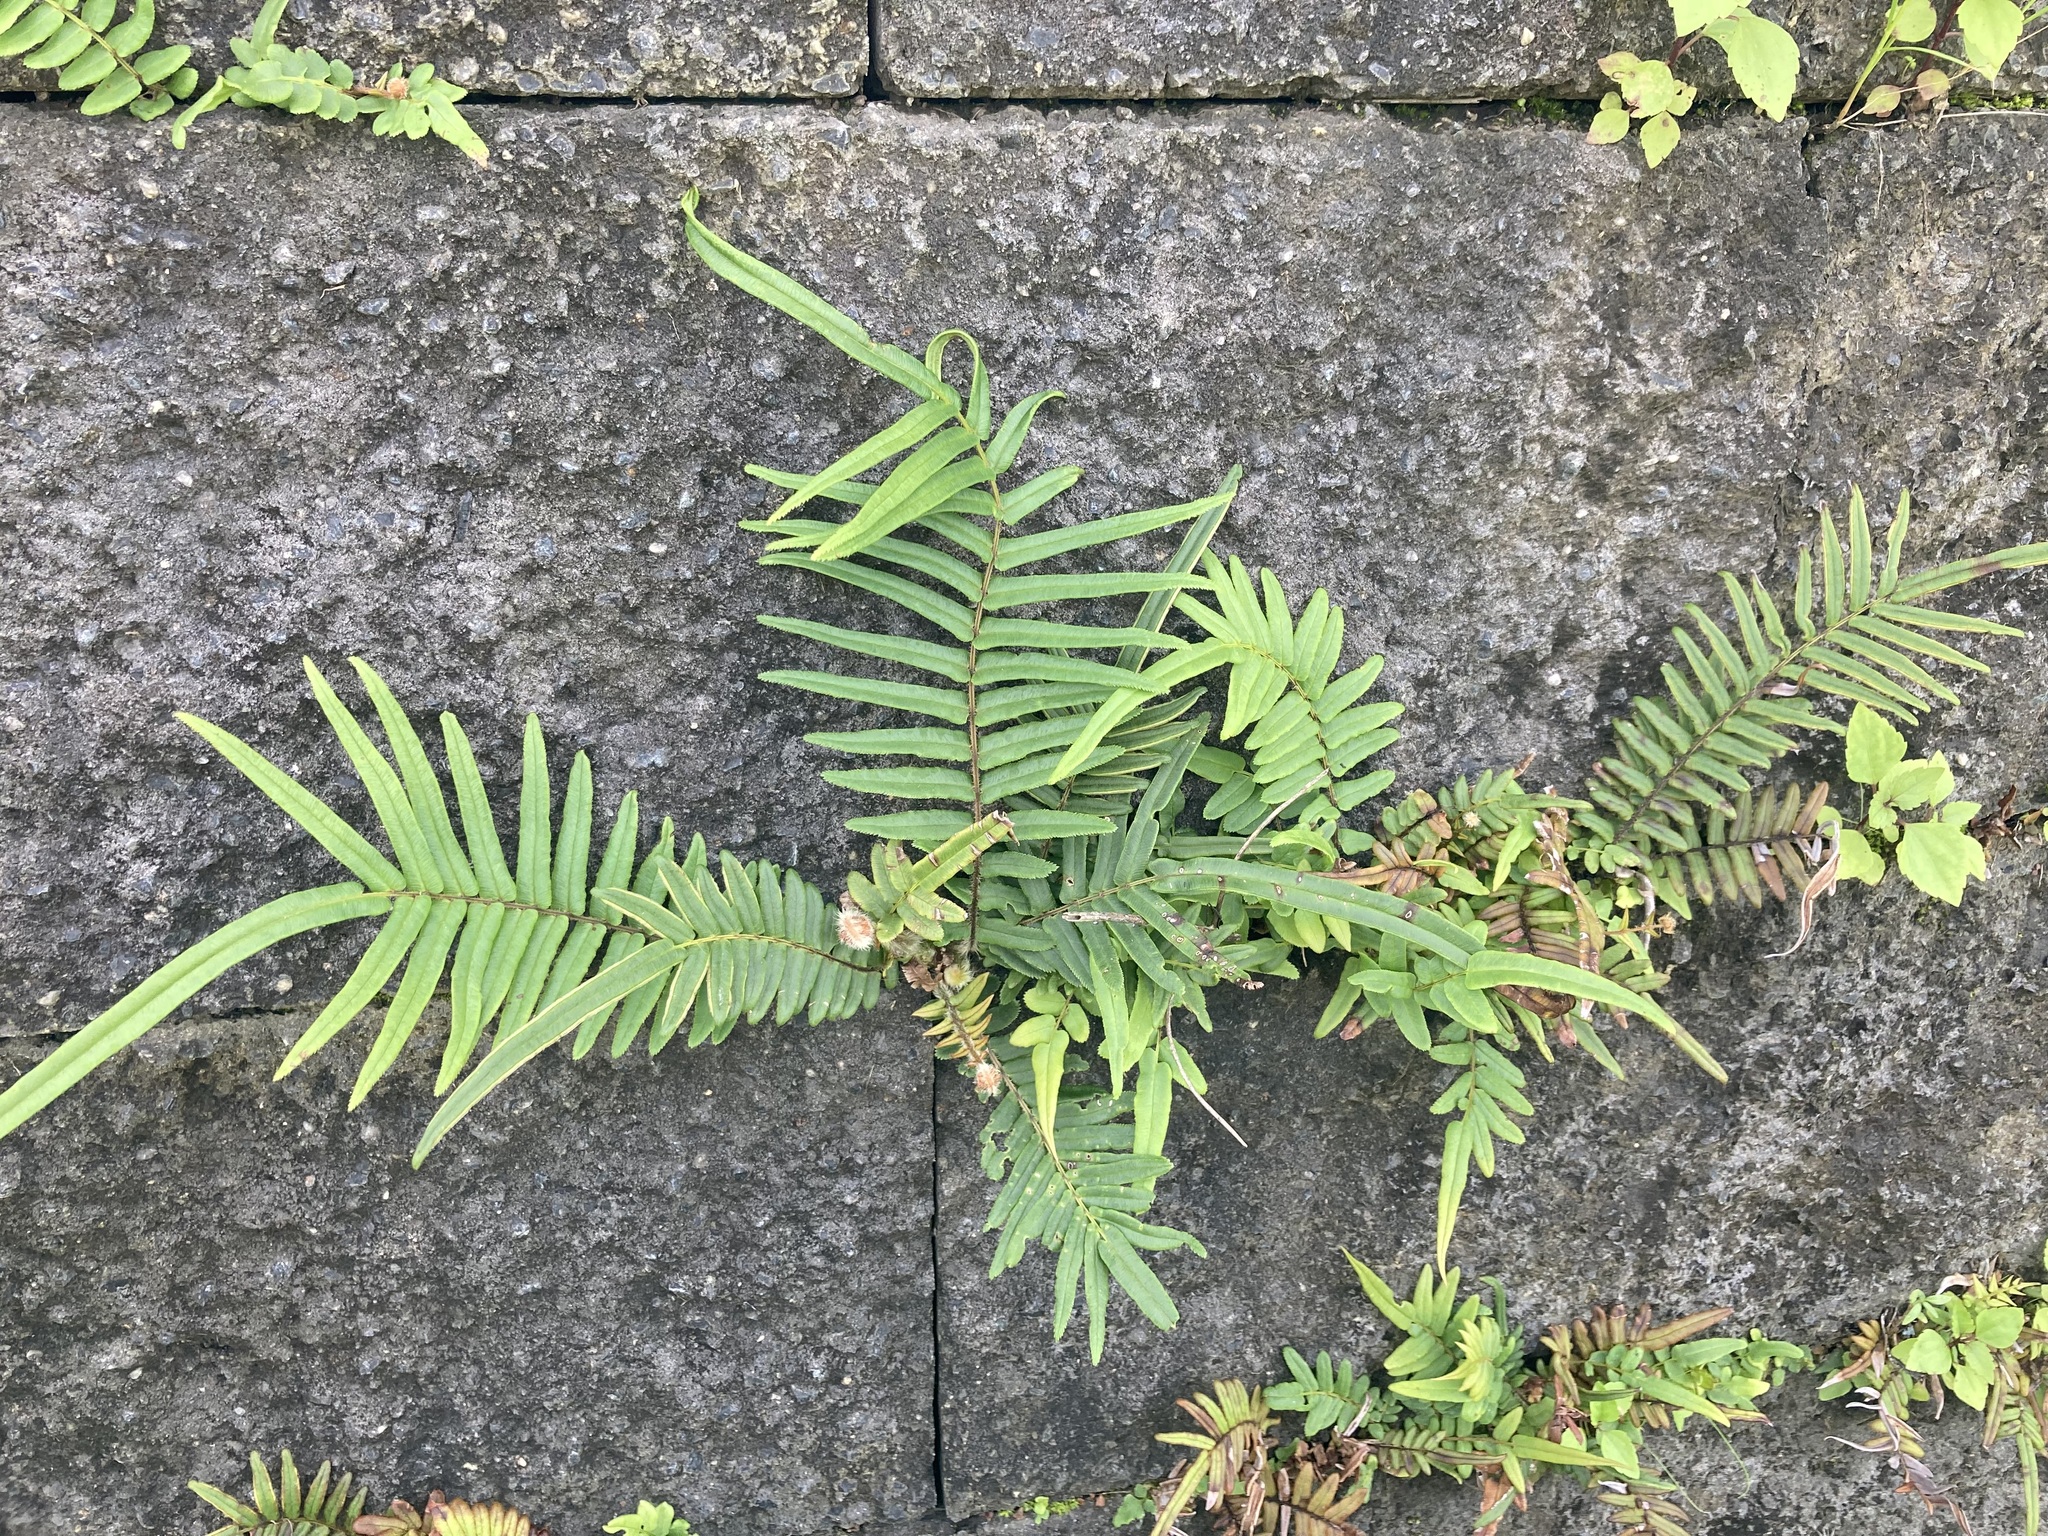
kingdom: Plantae
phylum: Tracheophyta
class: Polypodiopsida
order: Polypodiales
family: Pteridaceae
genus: Pteris
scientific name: Pteris vittata
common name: Ladder brake
